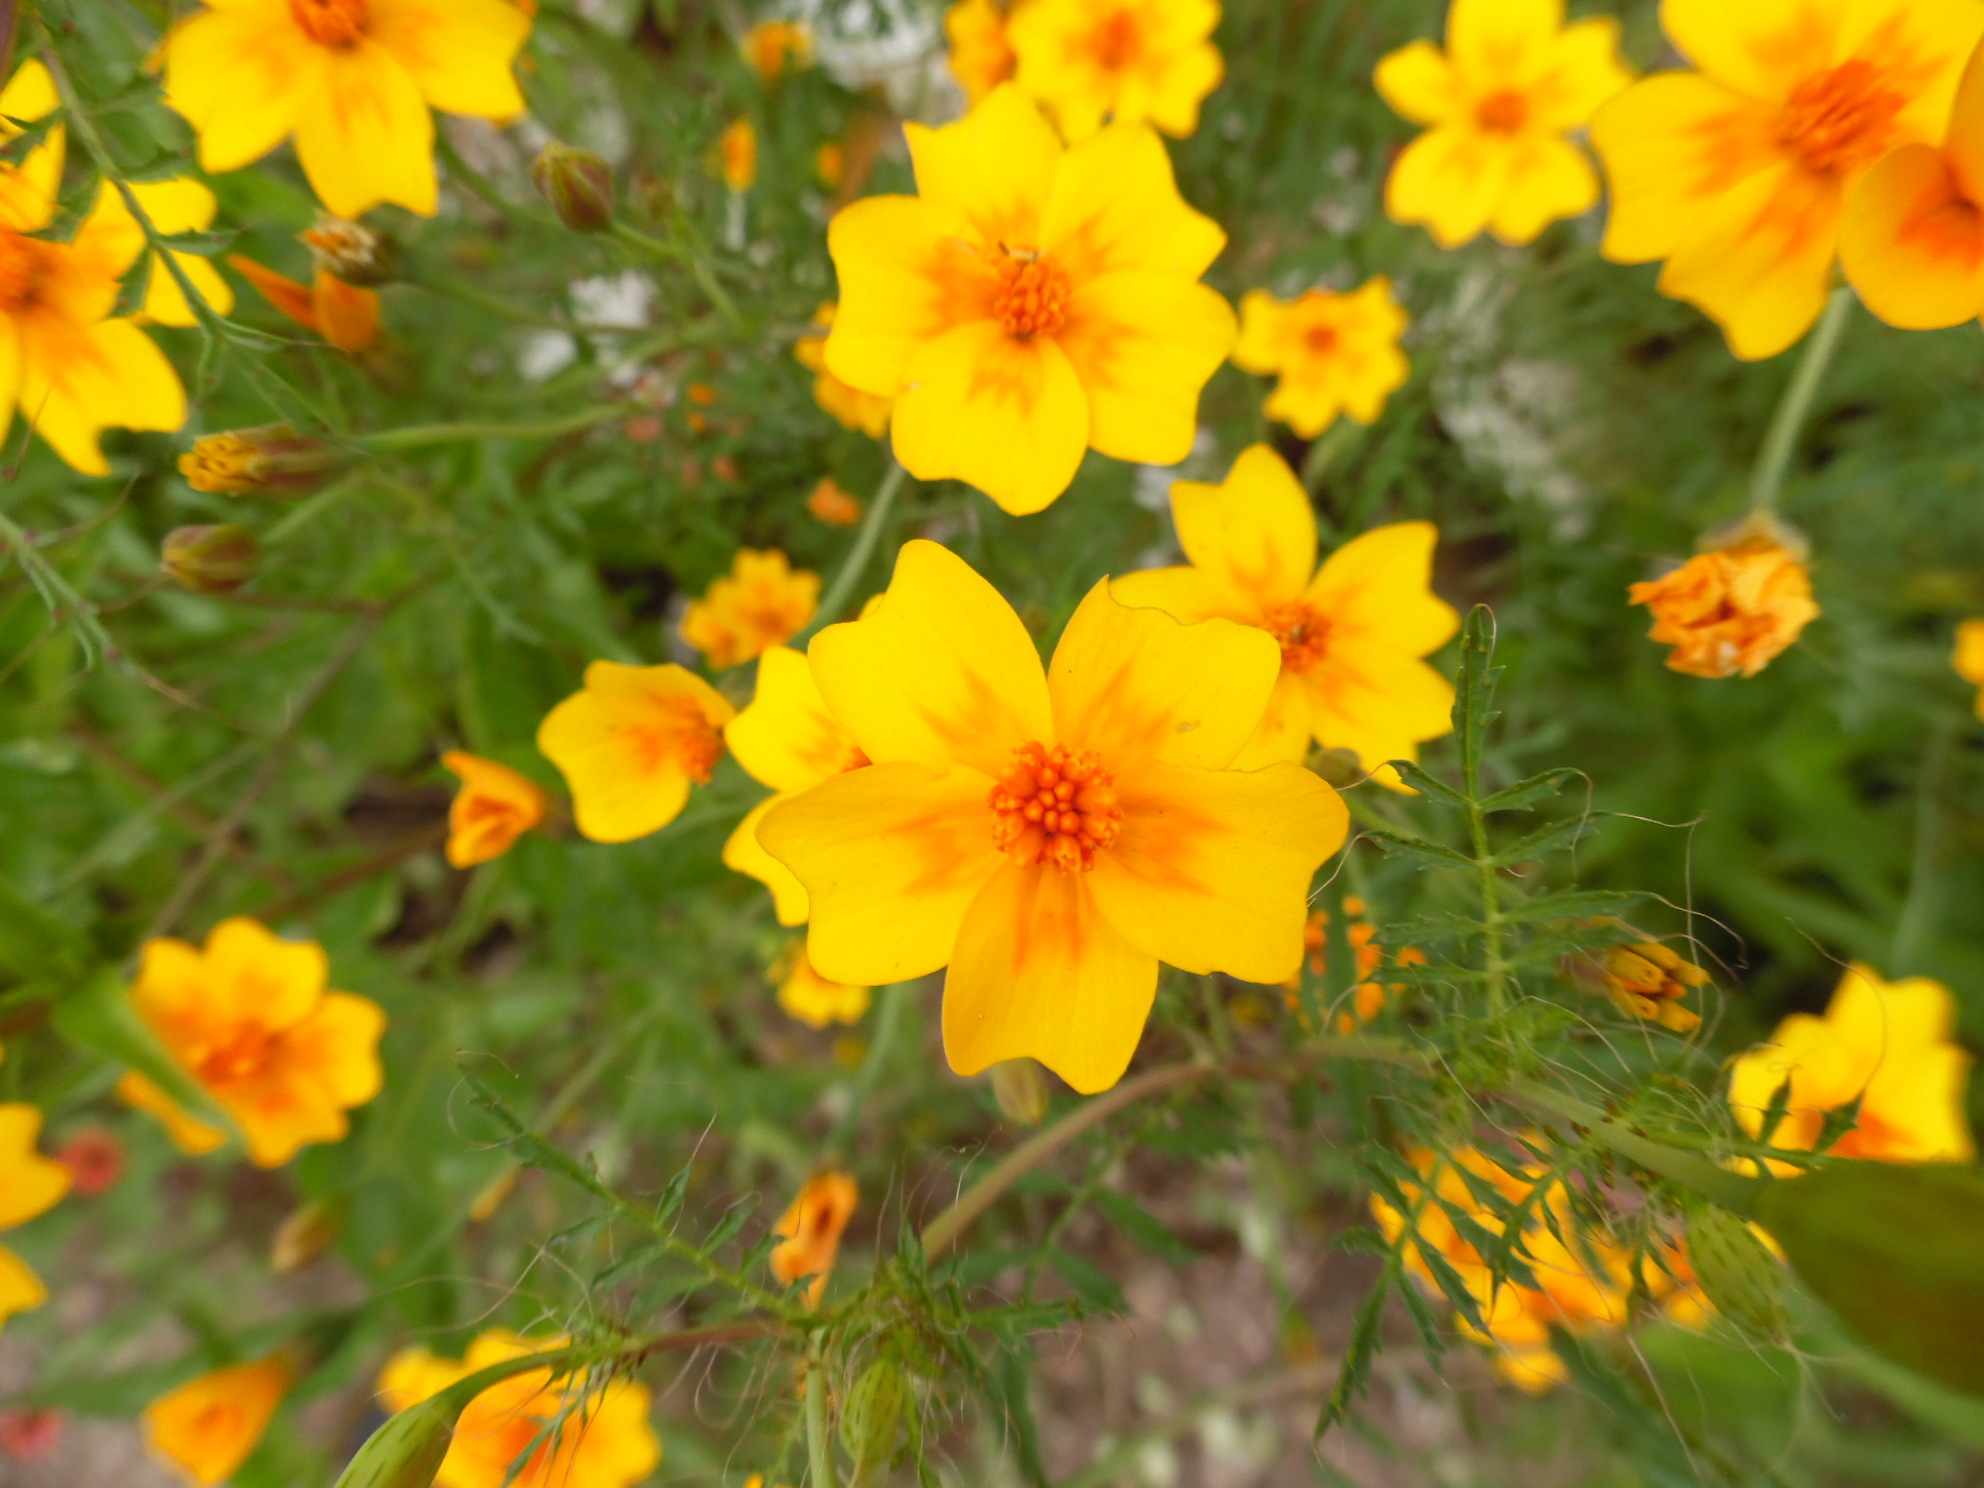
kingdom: Plantae
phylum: Tracheophyta
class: Magnoliopsida
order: Asterales
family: Asteraceae
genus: Tagetes
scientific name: Tagetes lunulata
